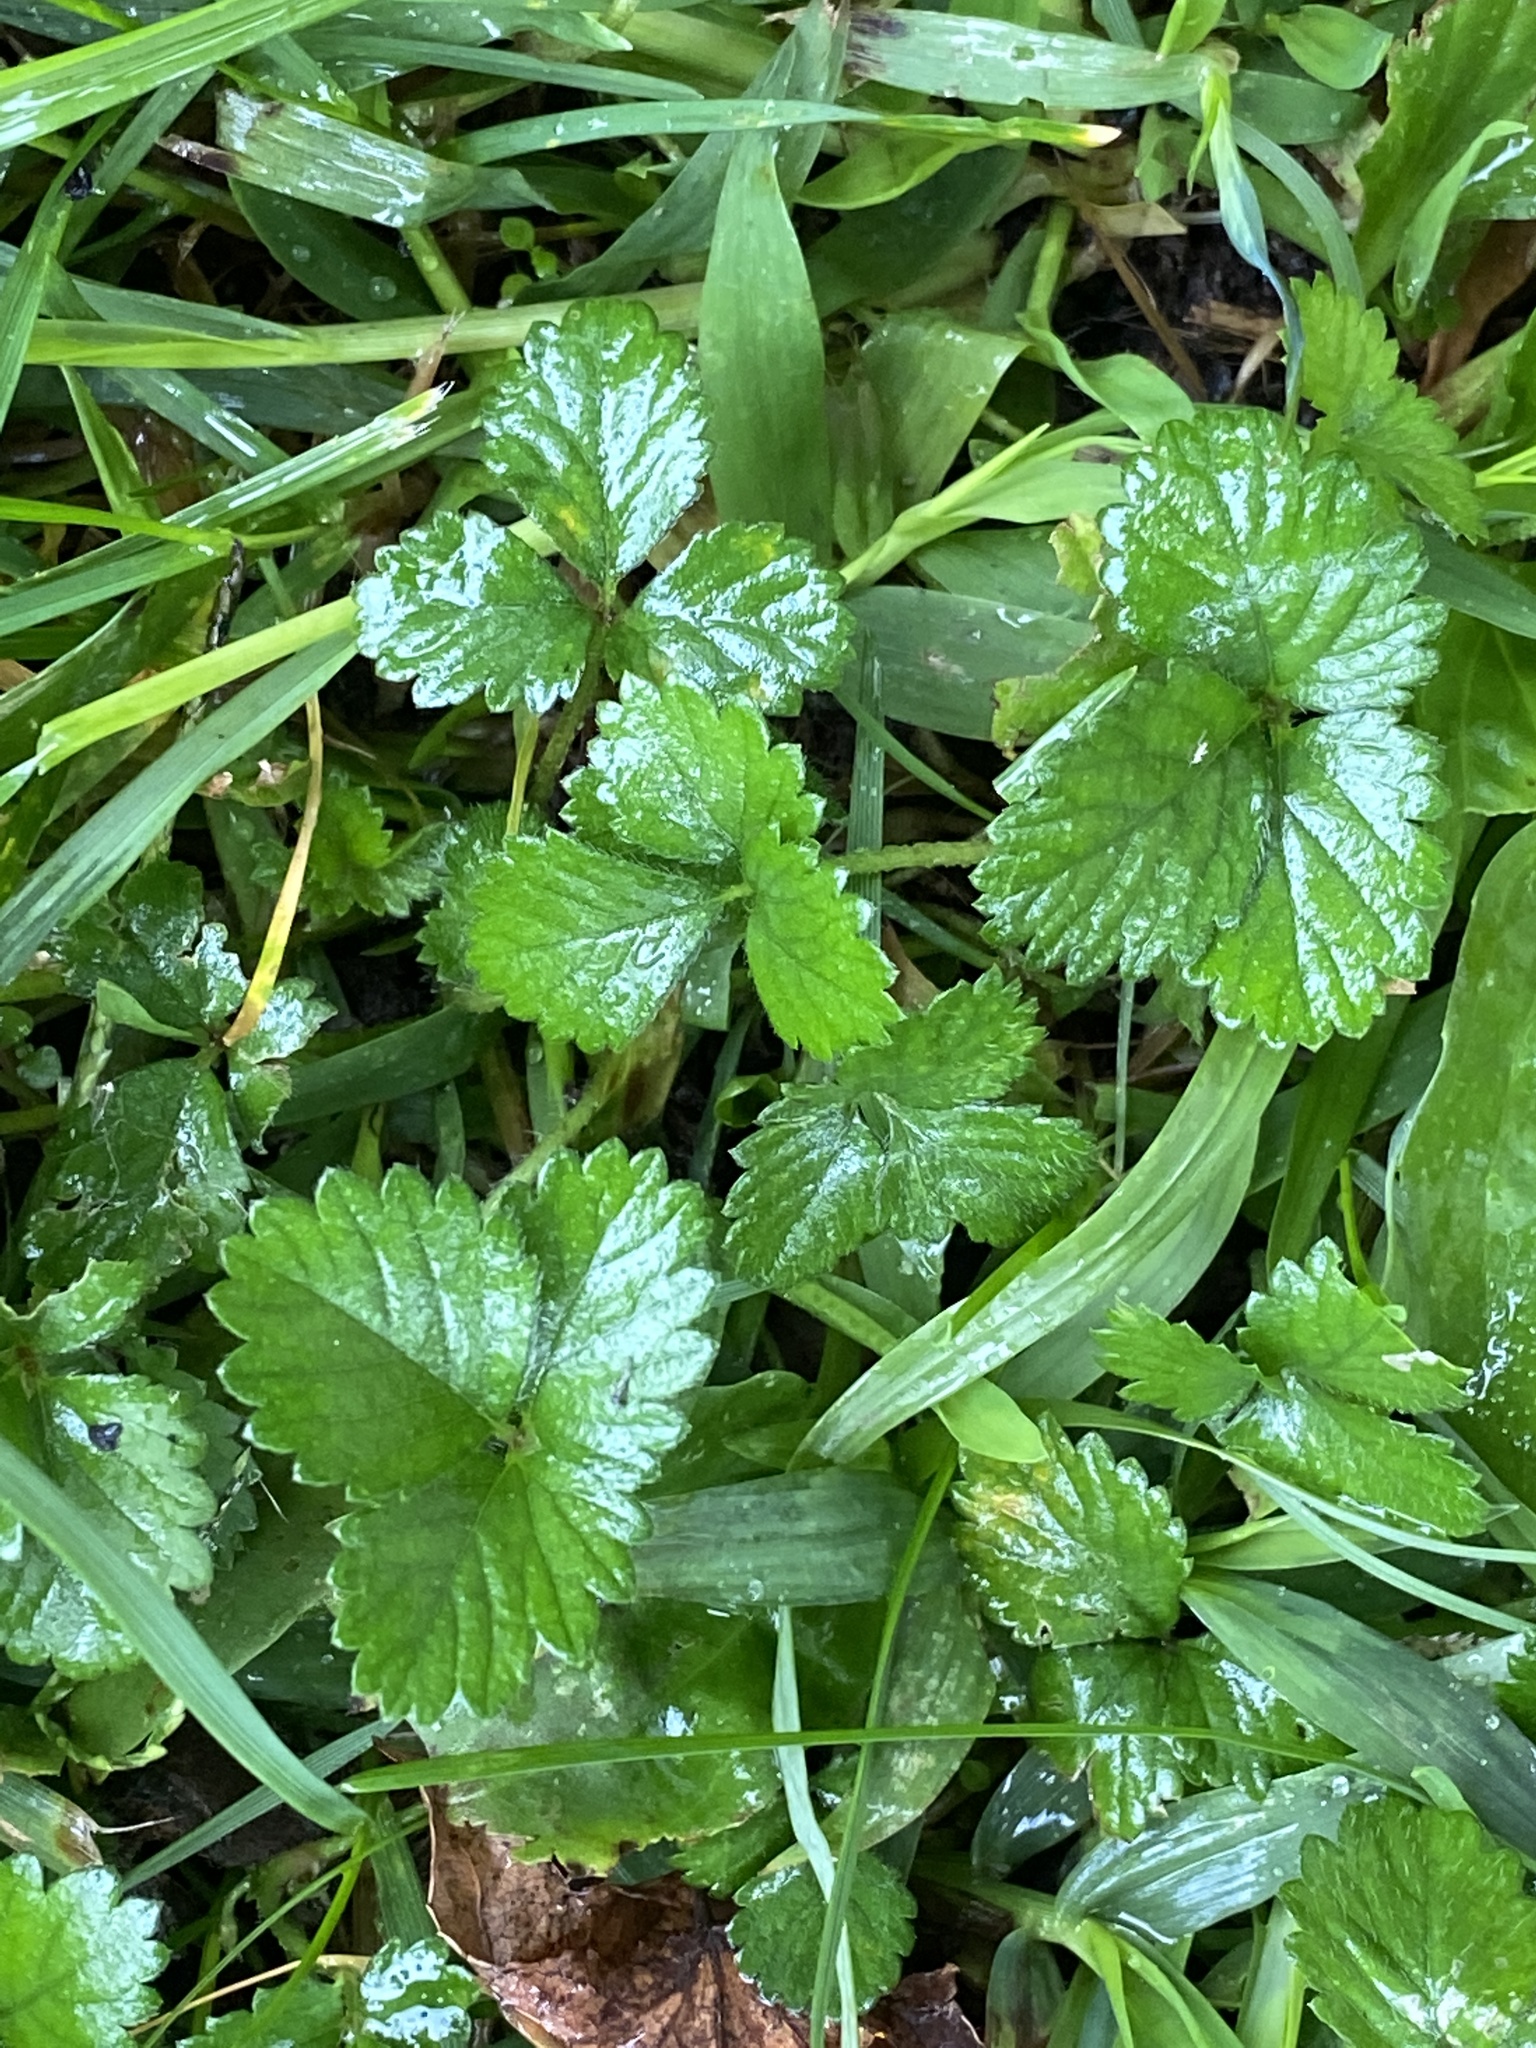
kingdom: Plantae
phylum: Tracheophyta
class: Magnoliopsida
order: Rosales
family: Rosaceae
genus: Potentilla
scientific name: Potentilla indica
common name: Yellow-flowered strawberry
